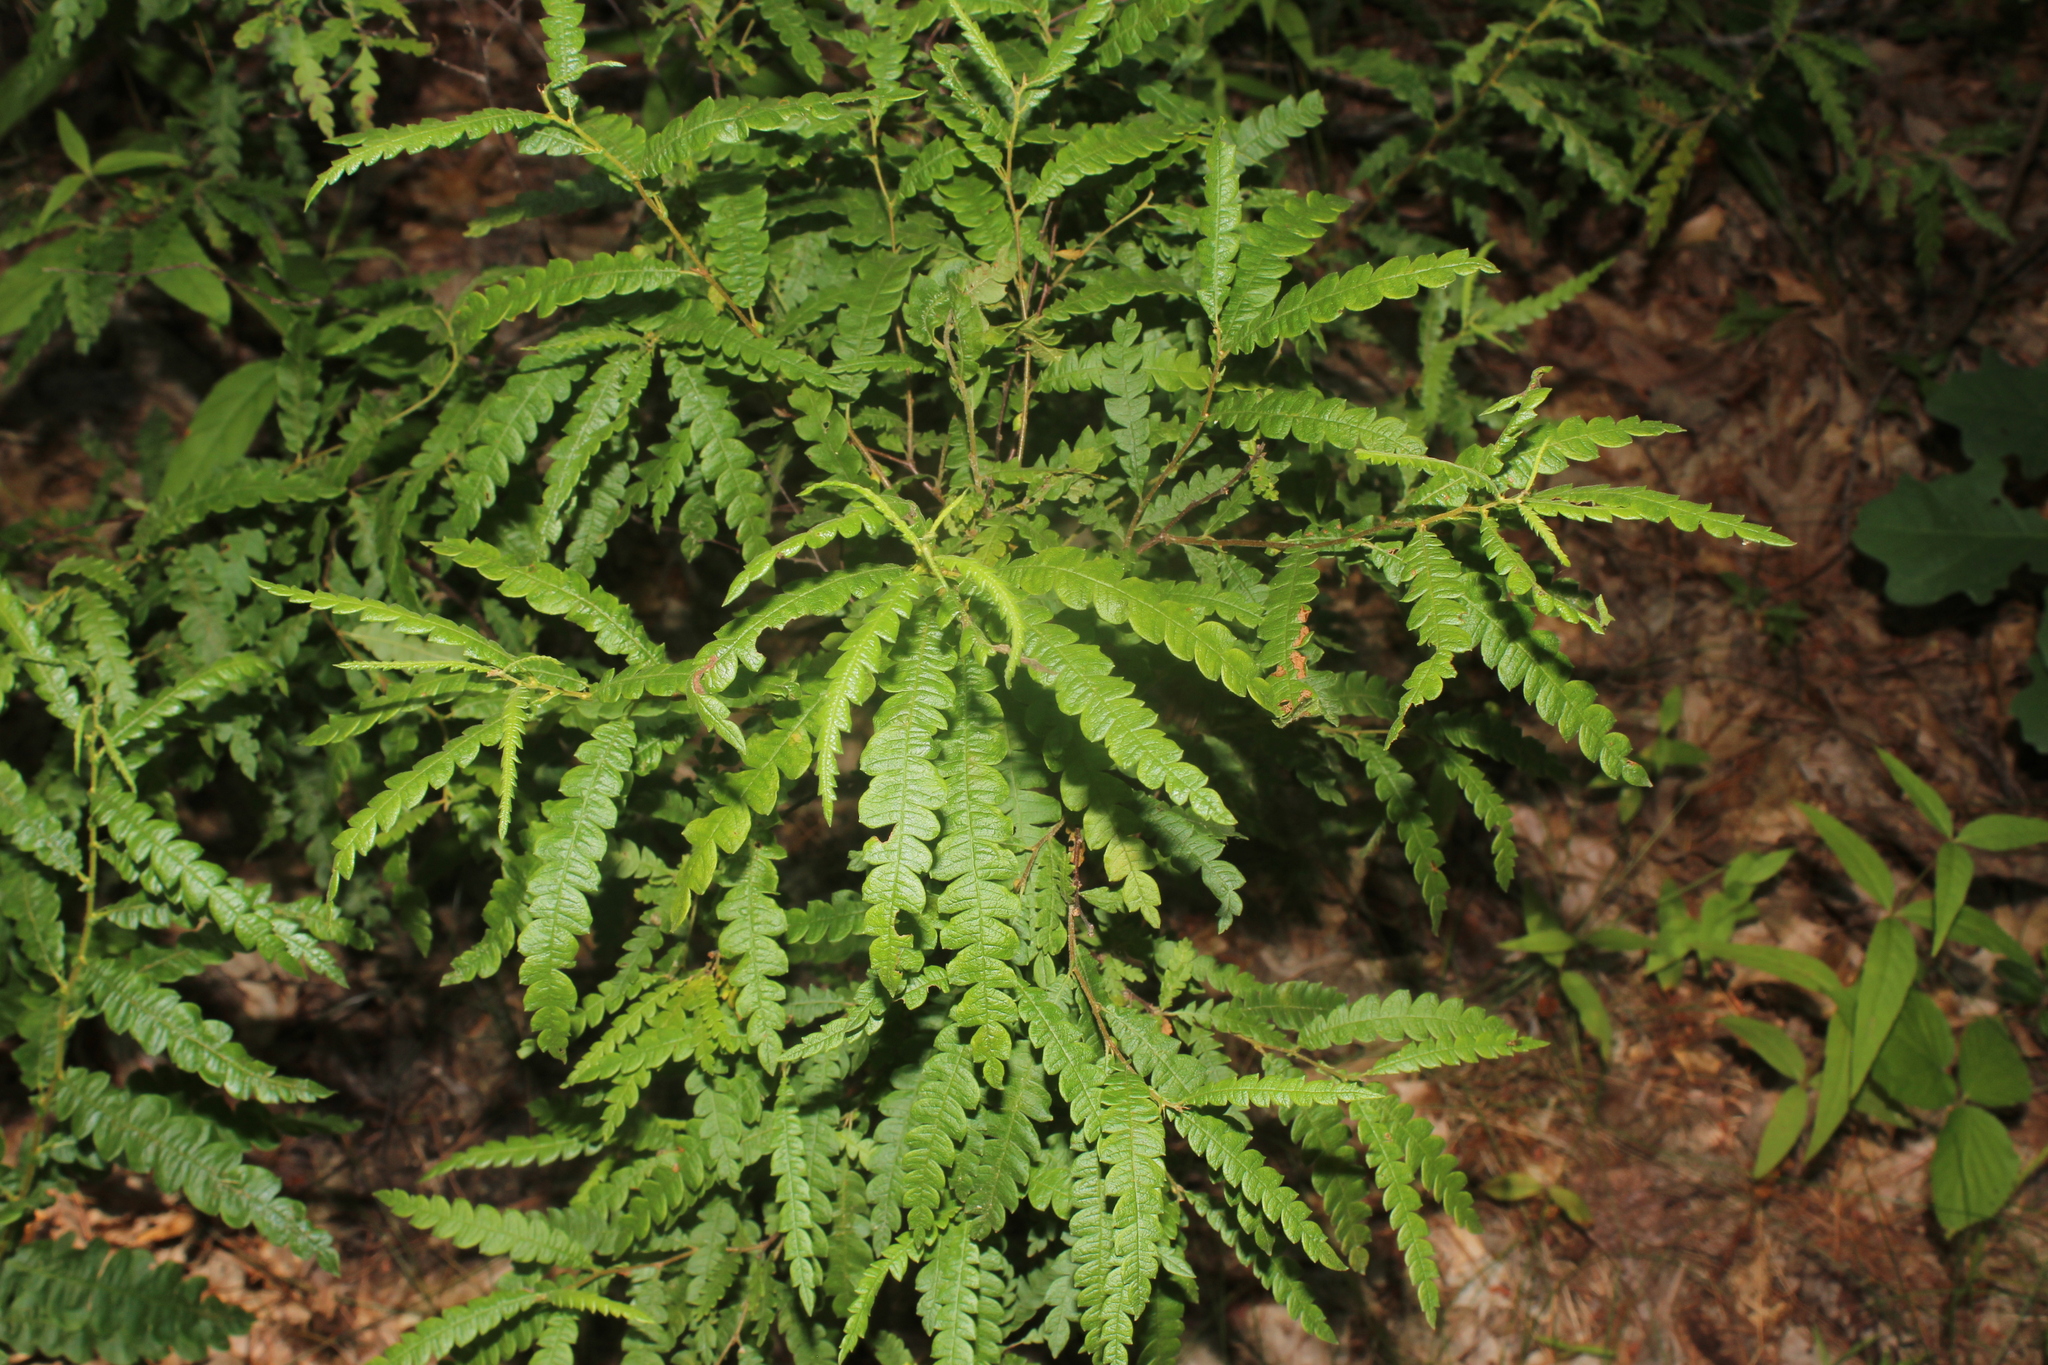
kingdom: Plantae
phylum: Tracheophyta
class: Magnoliopsida
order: Fagales
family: Myricaceae
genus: Comptonia
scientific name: Comptonia peregrina
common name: Sweet-fern
